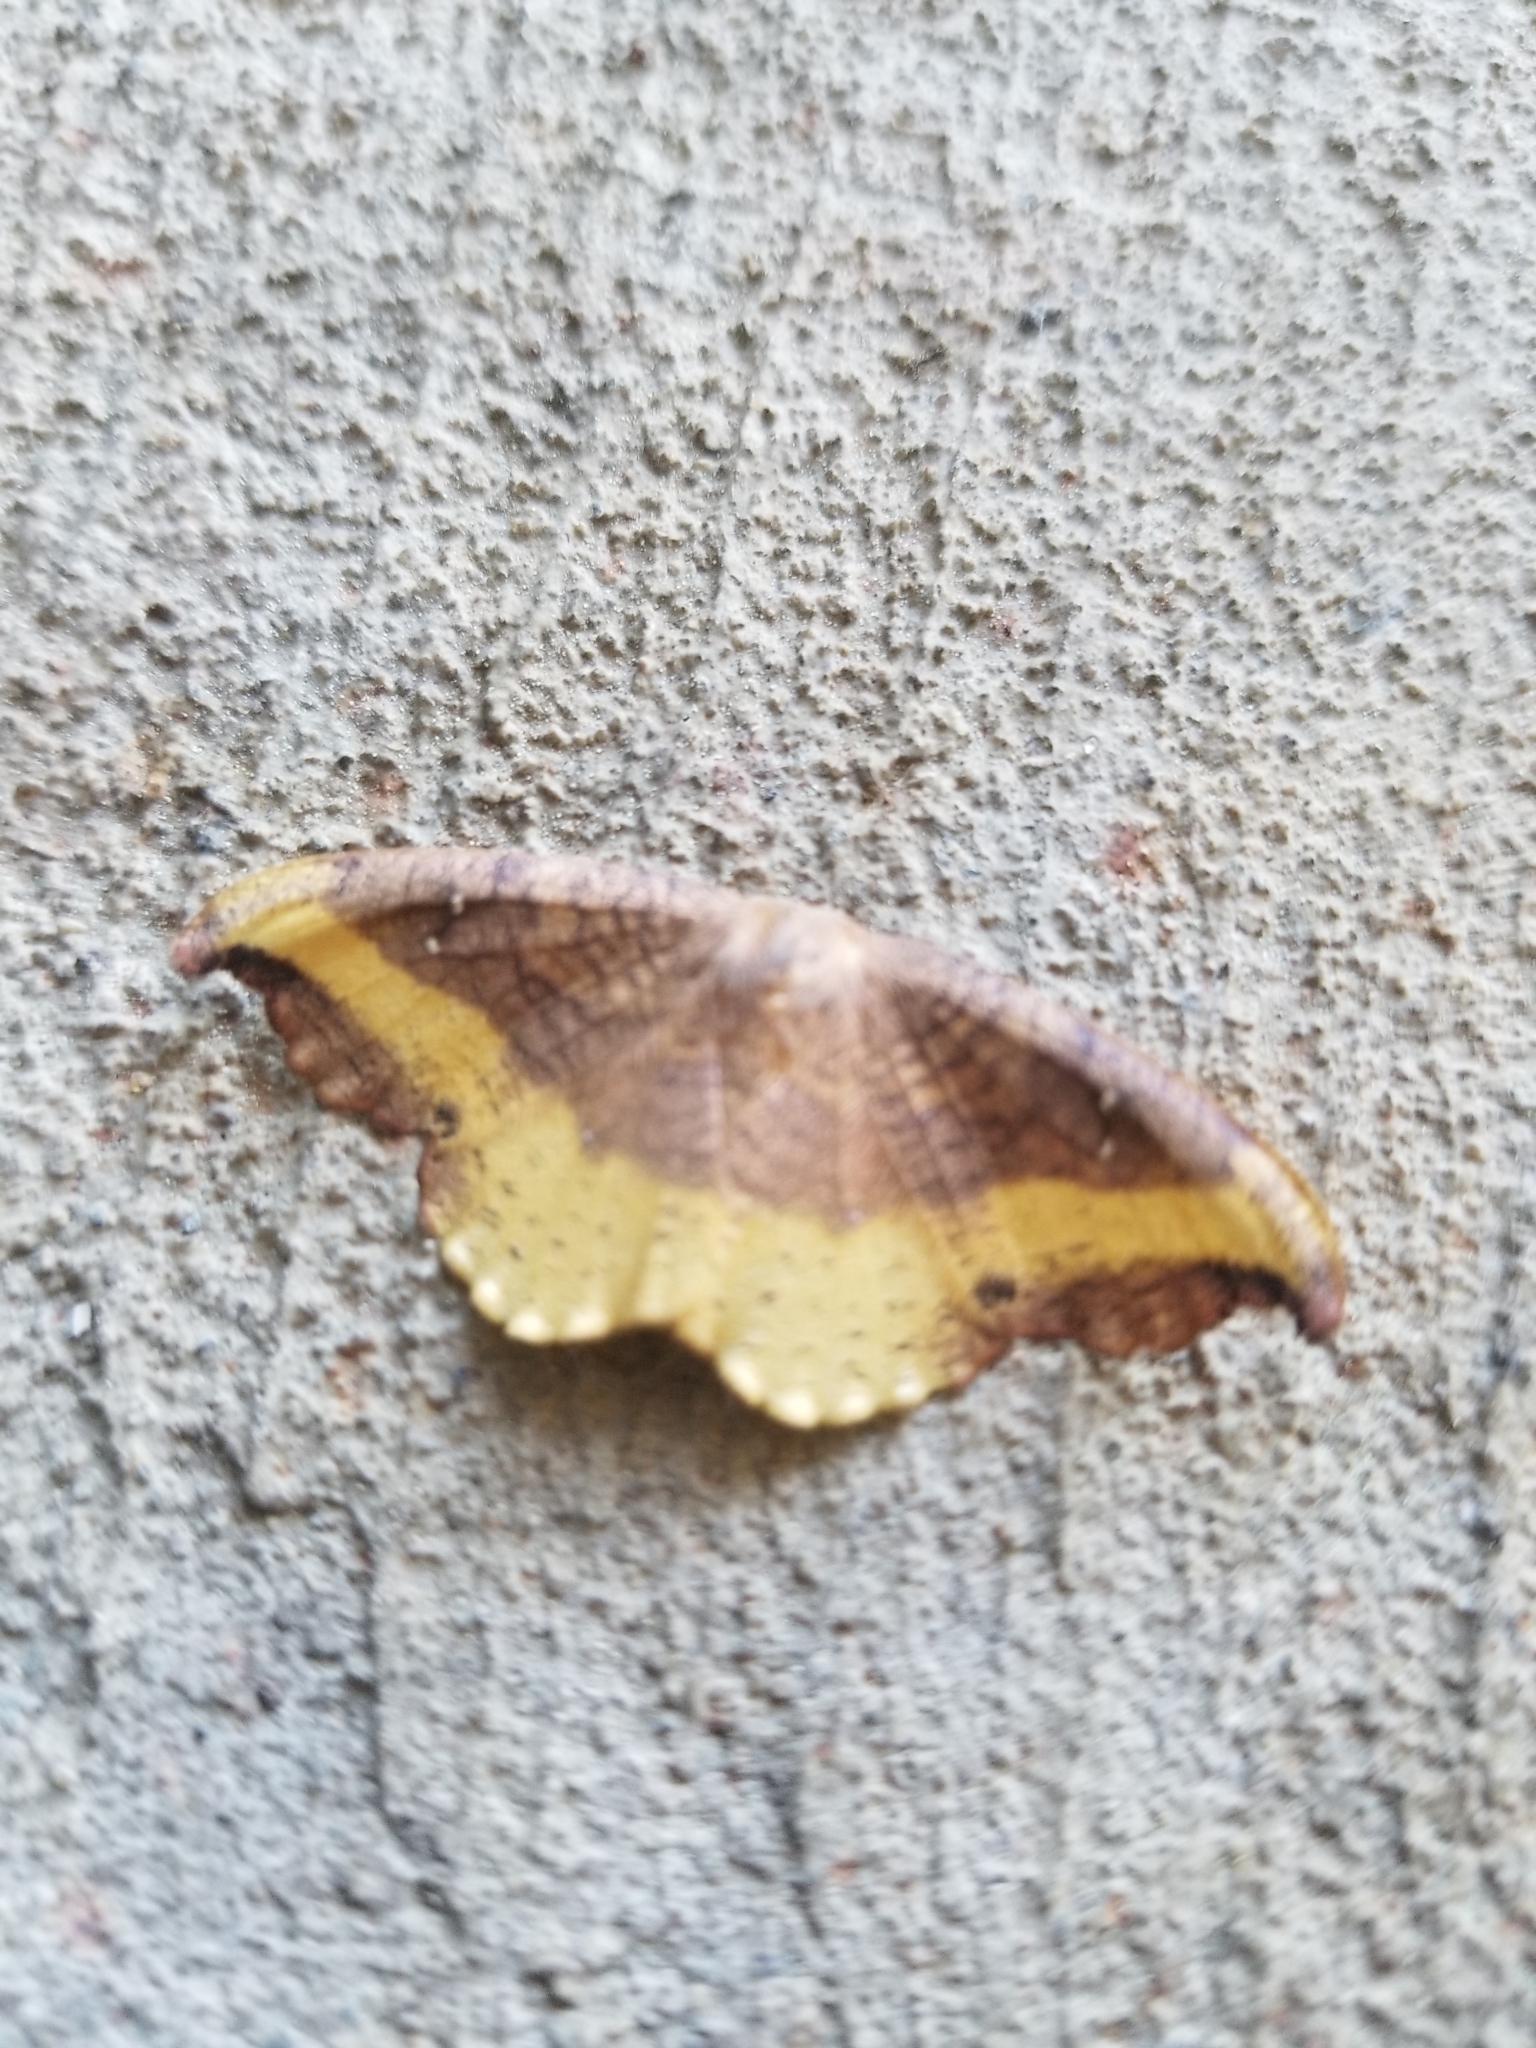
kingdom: Animalia
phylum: Arthropoda
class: Insecta
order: Lepidoptera
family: Drepanidae
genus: Oreta
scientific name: Oreta rosea
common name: Rose hooktip
